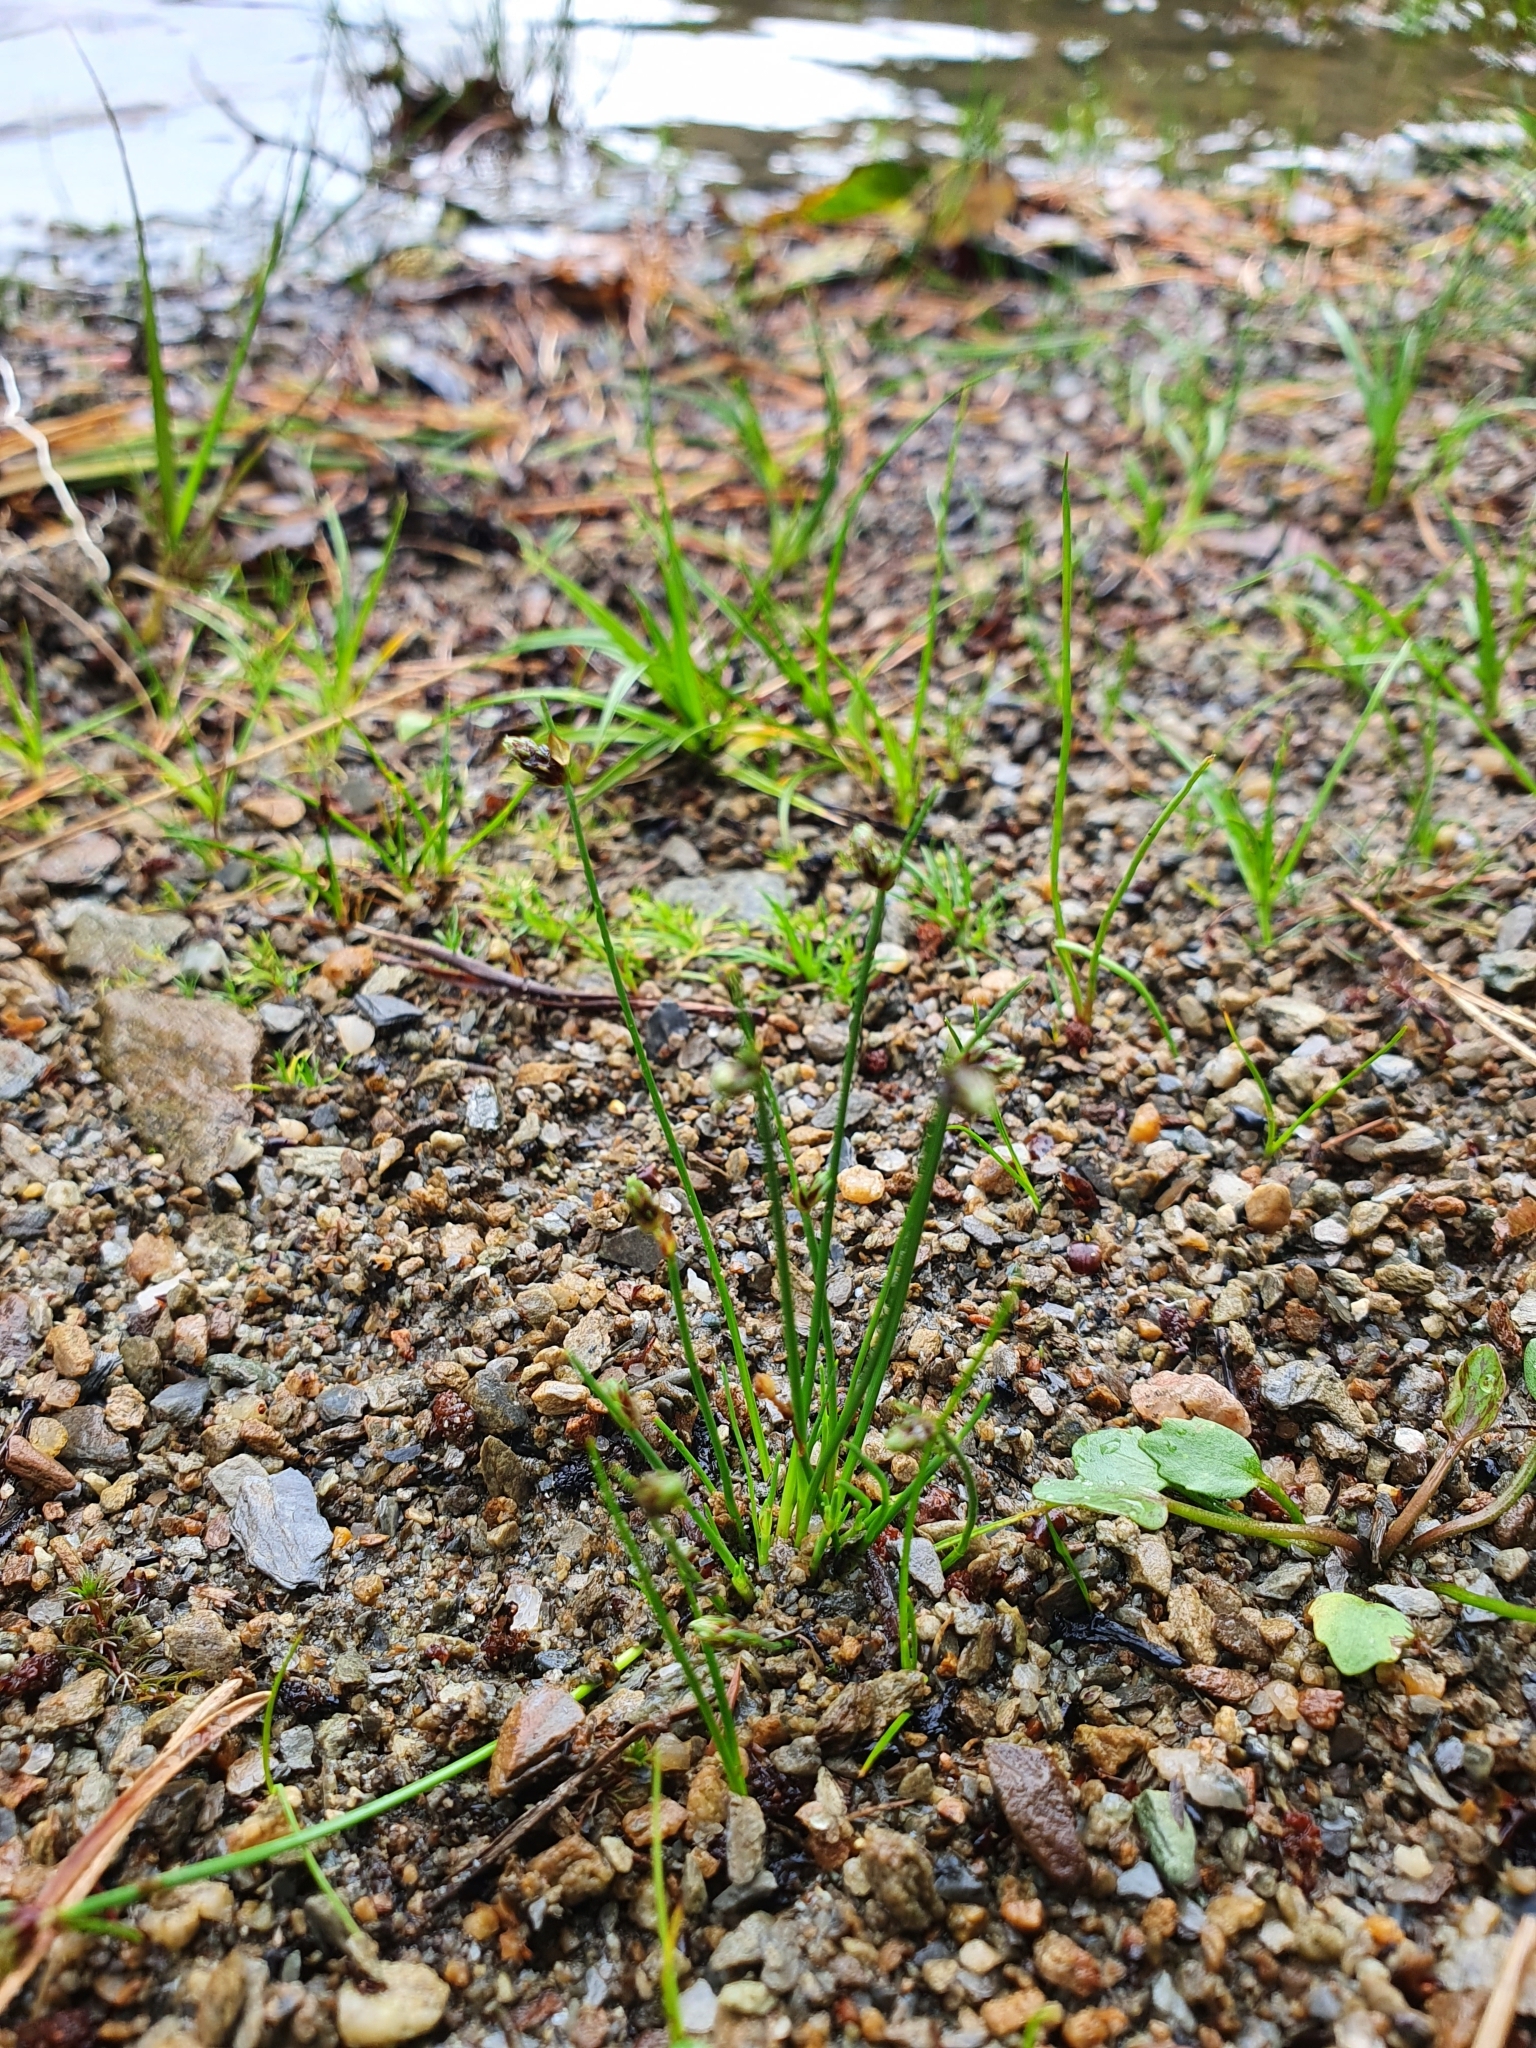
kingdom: Plantae
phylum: Tracheophyta
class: Liliopsida
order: Poales
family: Cyperaceae
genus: Isolepis
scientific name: Isolepis setacea
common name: Bristle club-rush
